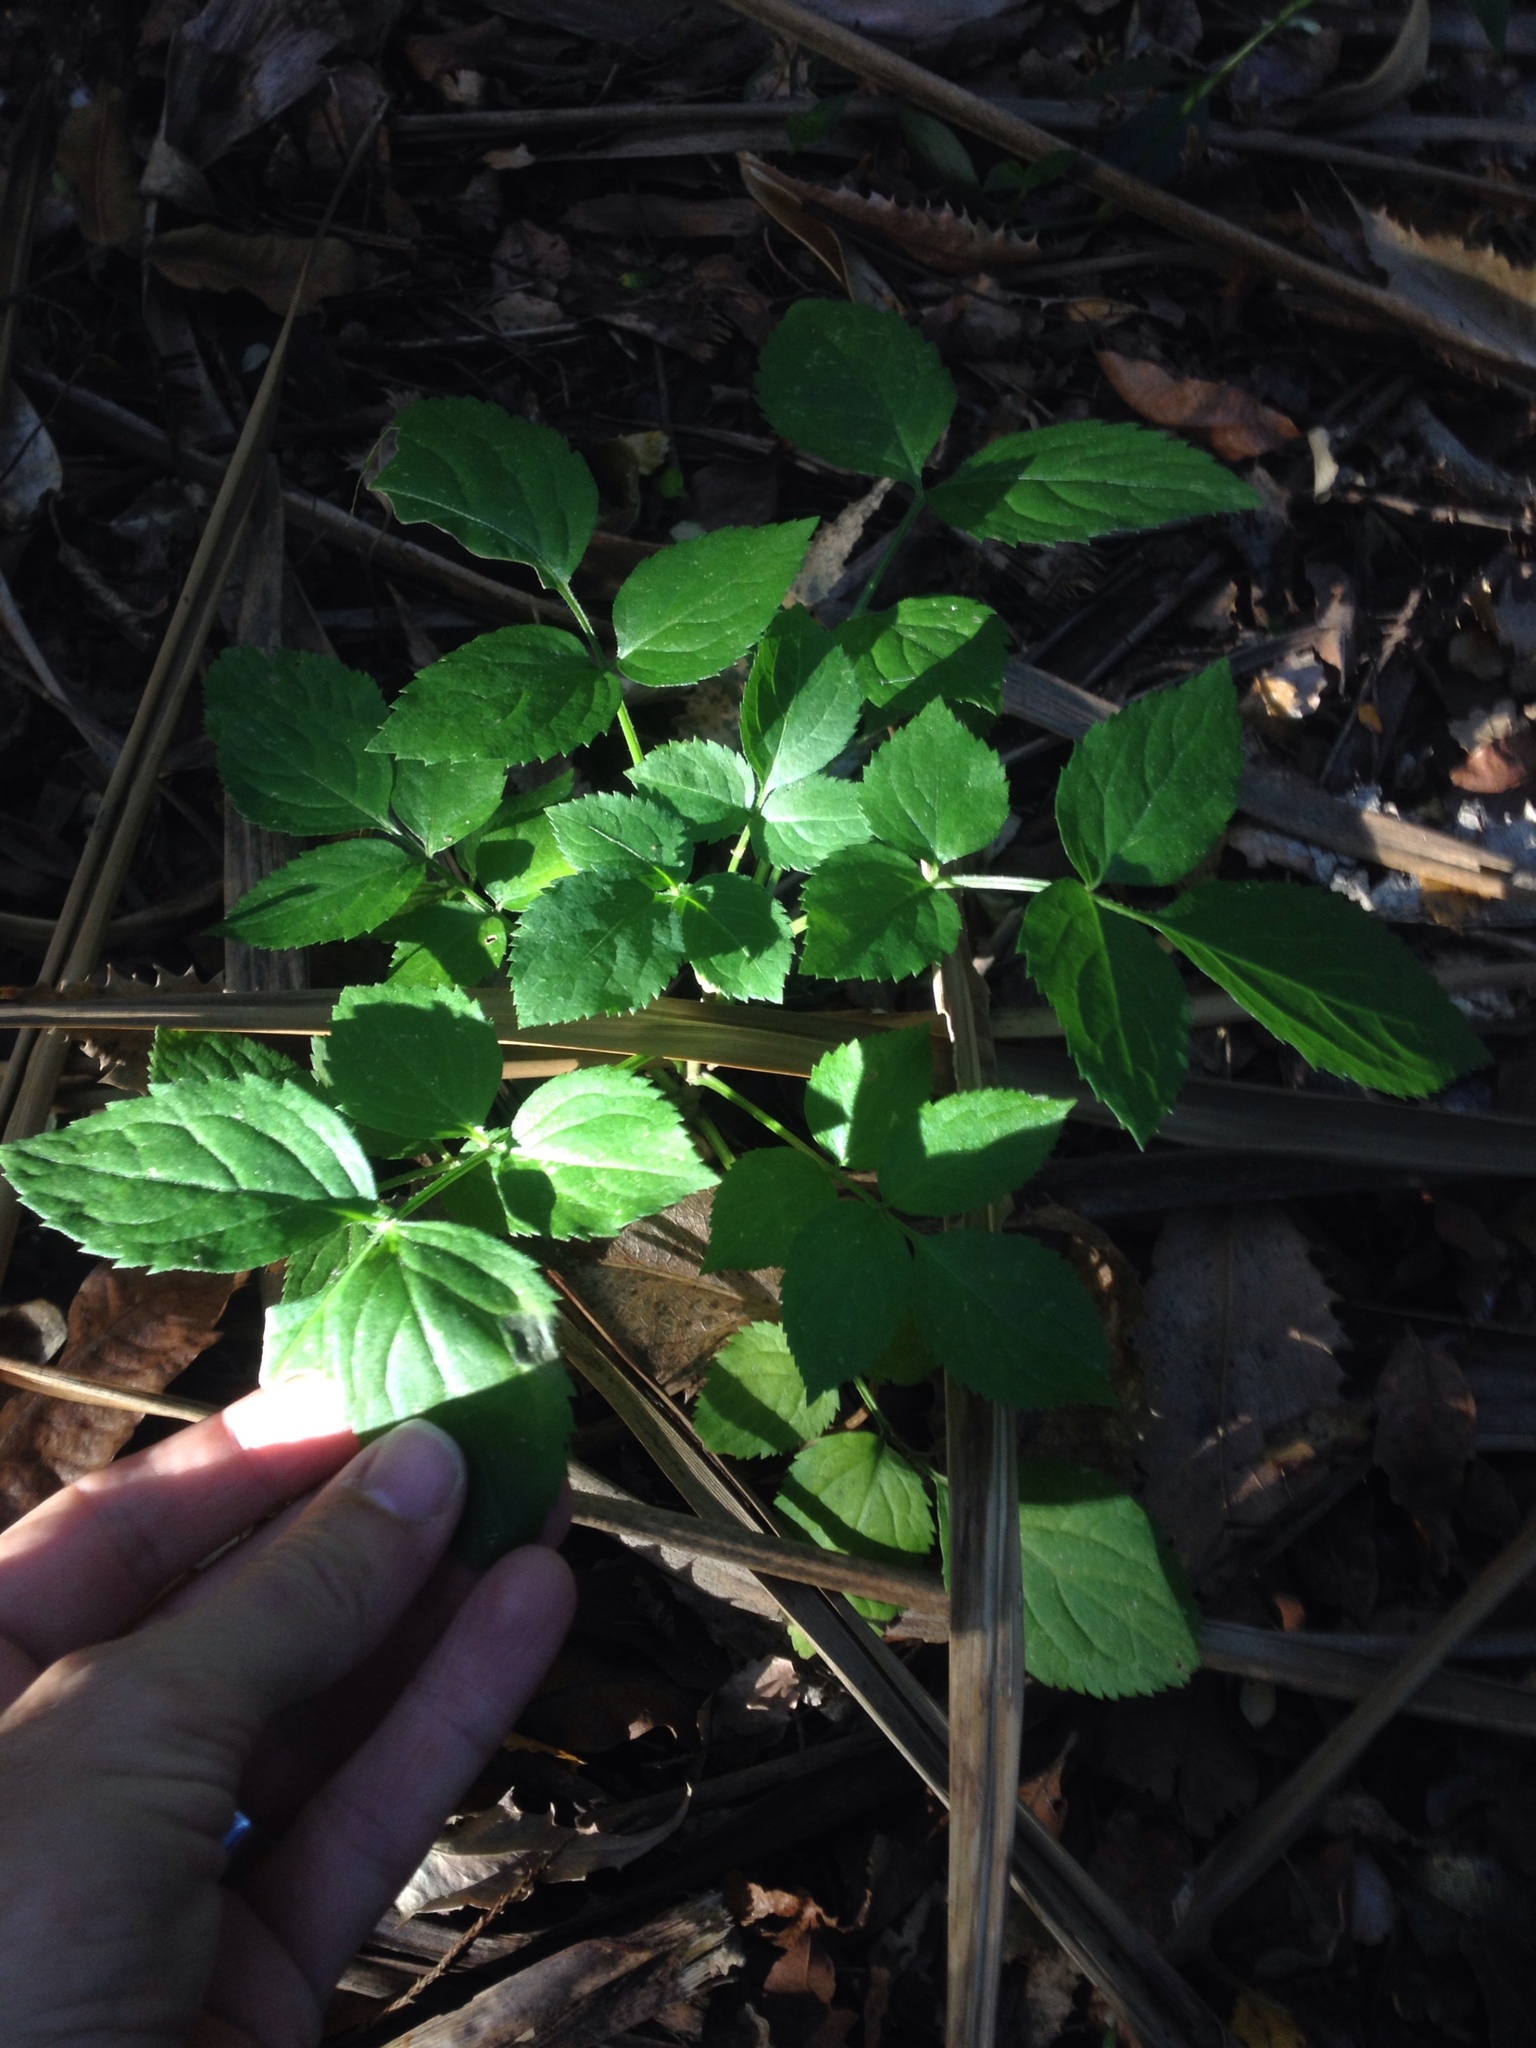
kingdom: Plantae
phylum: Tracheophyta
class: Magnoliopsida
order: Dipsacales
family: Viburnaceae
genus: Sambucus
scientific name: Sambucus nigra
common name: Elder
